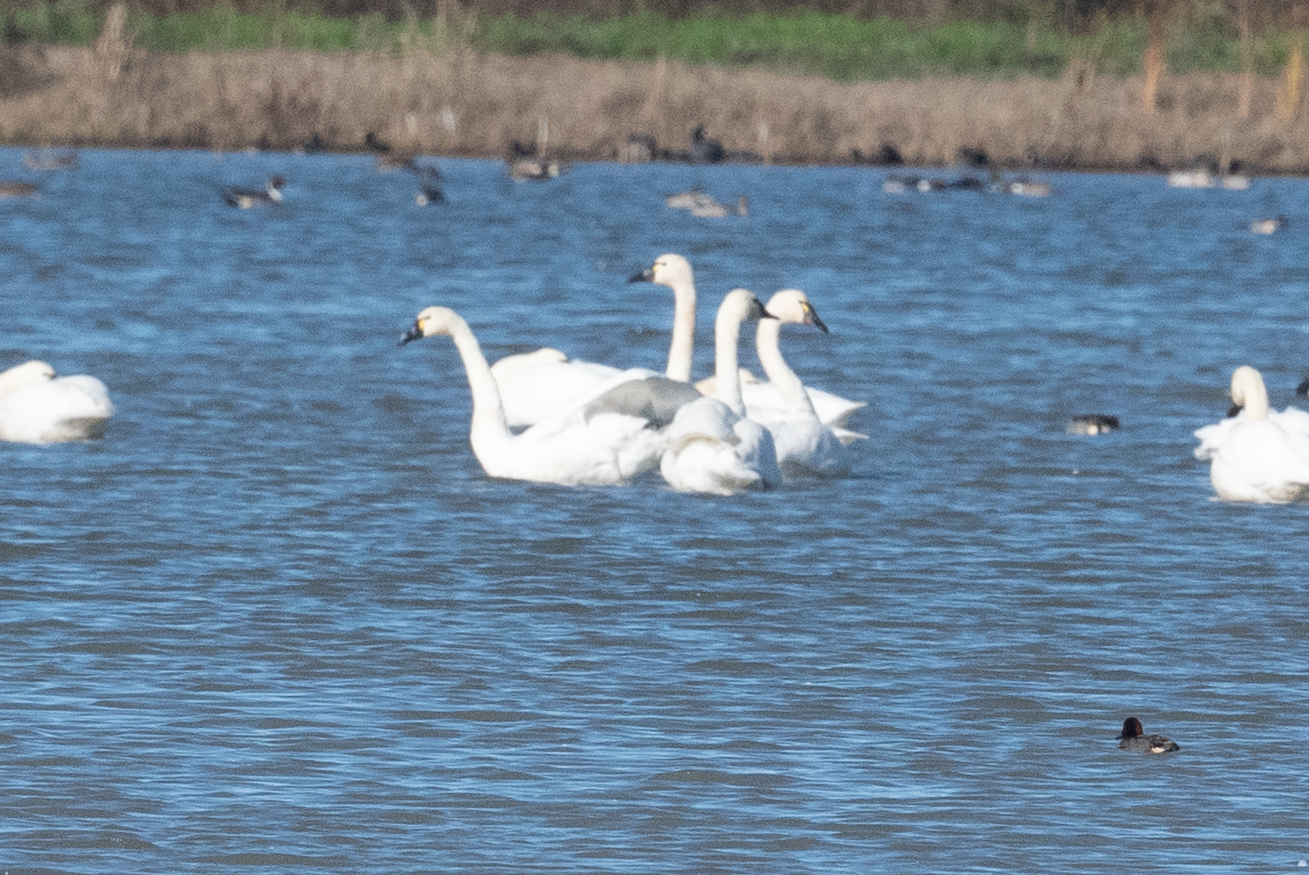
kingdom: Animalia
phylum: Chordata
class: Aves
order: Anseriformes
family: Anatidae
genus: Cygnus
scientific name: Cygnus columbianus
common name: Tundra swan
